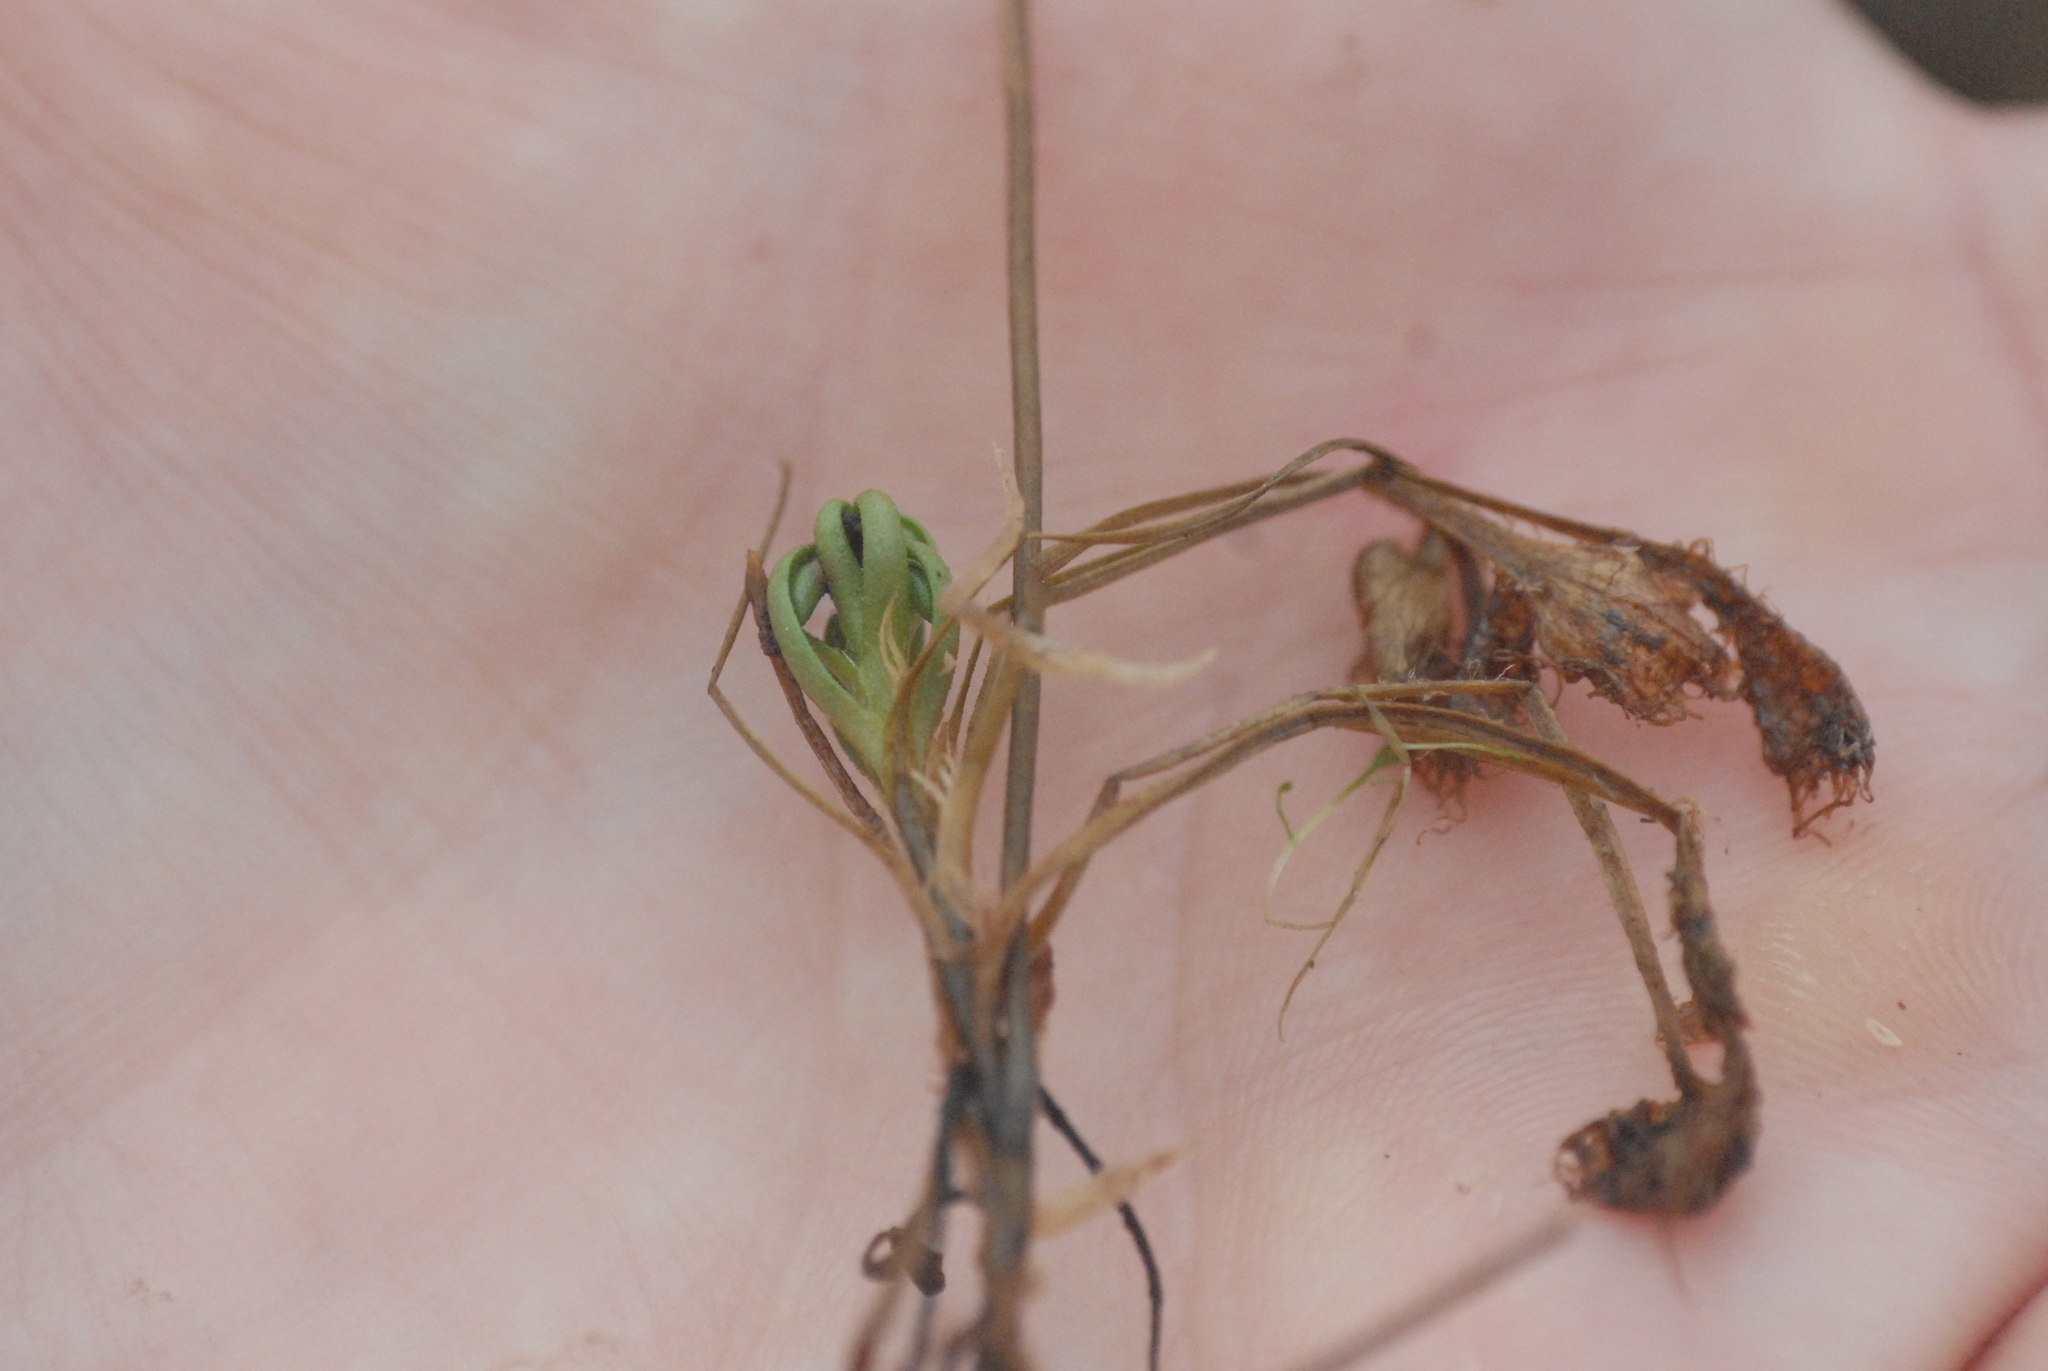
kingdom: Plantae
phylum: Tracheophyta
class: Magnoliopsida
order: Caryophyllales
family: Droseraceae
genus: Drosera
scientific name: Drosera rotundifolia
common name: Round-leaved sundew
